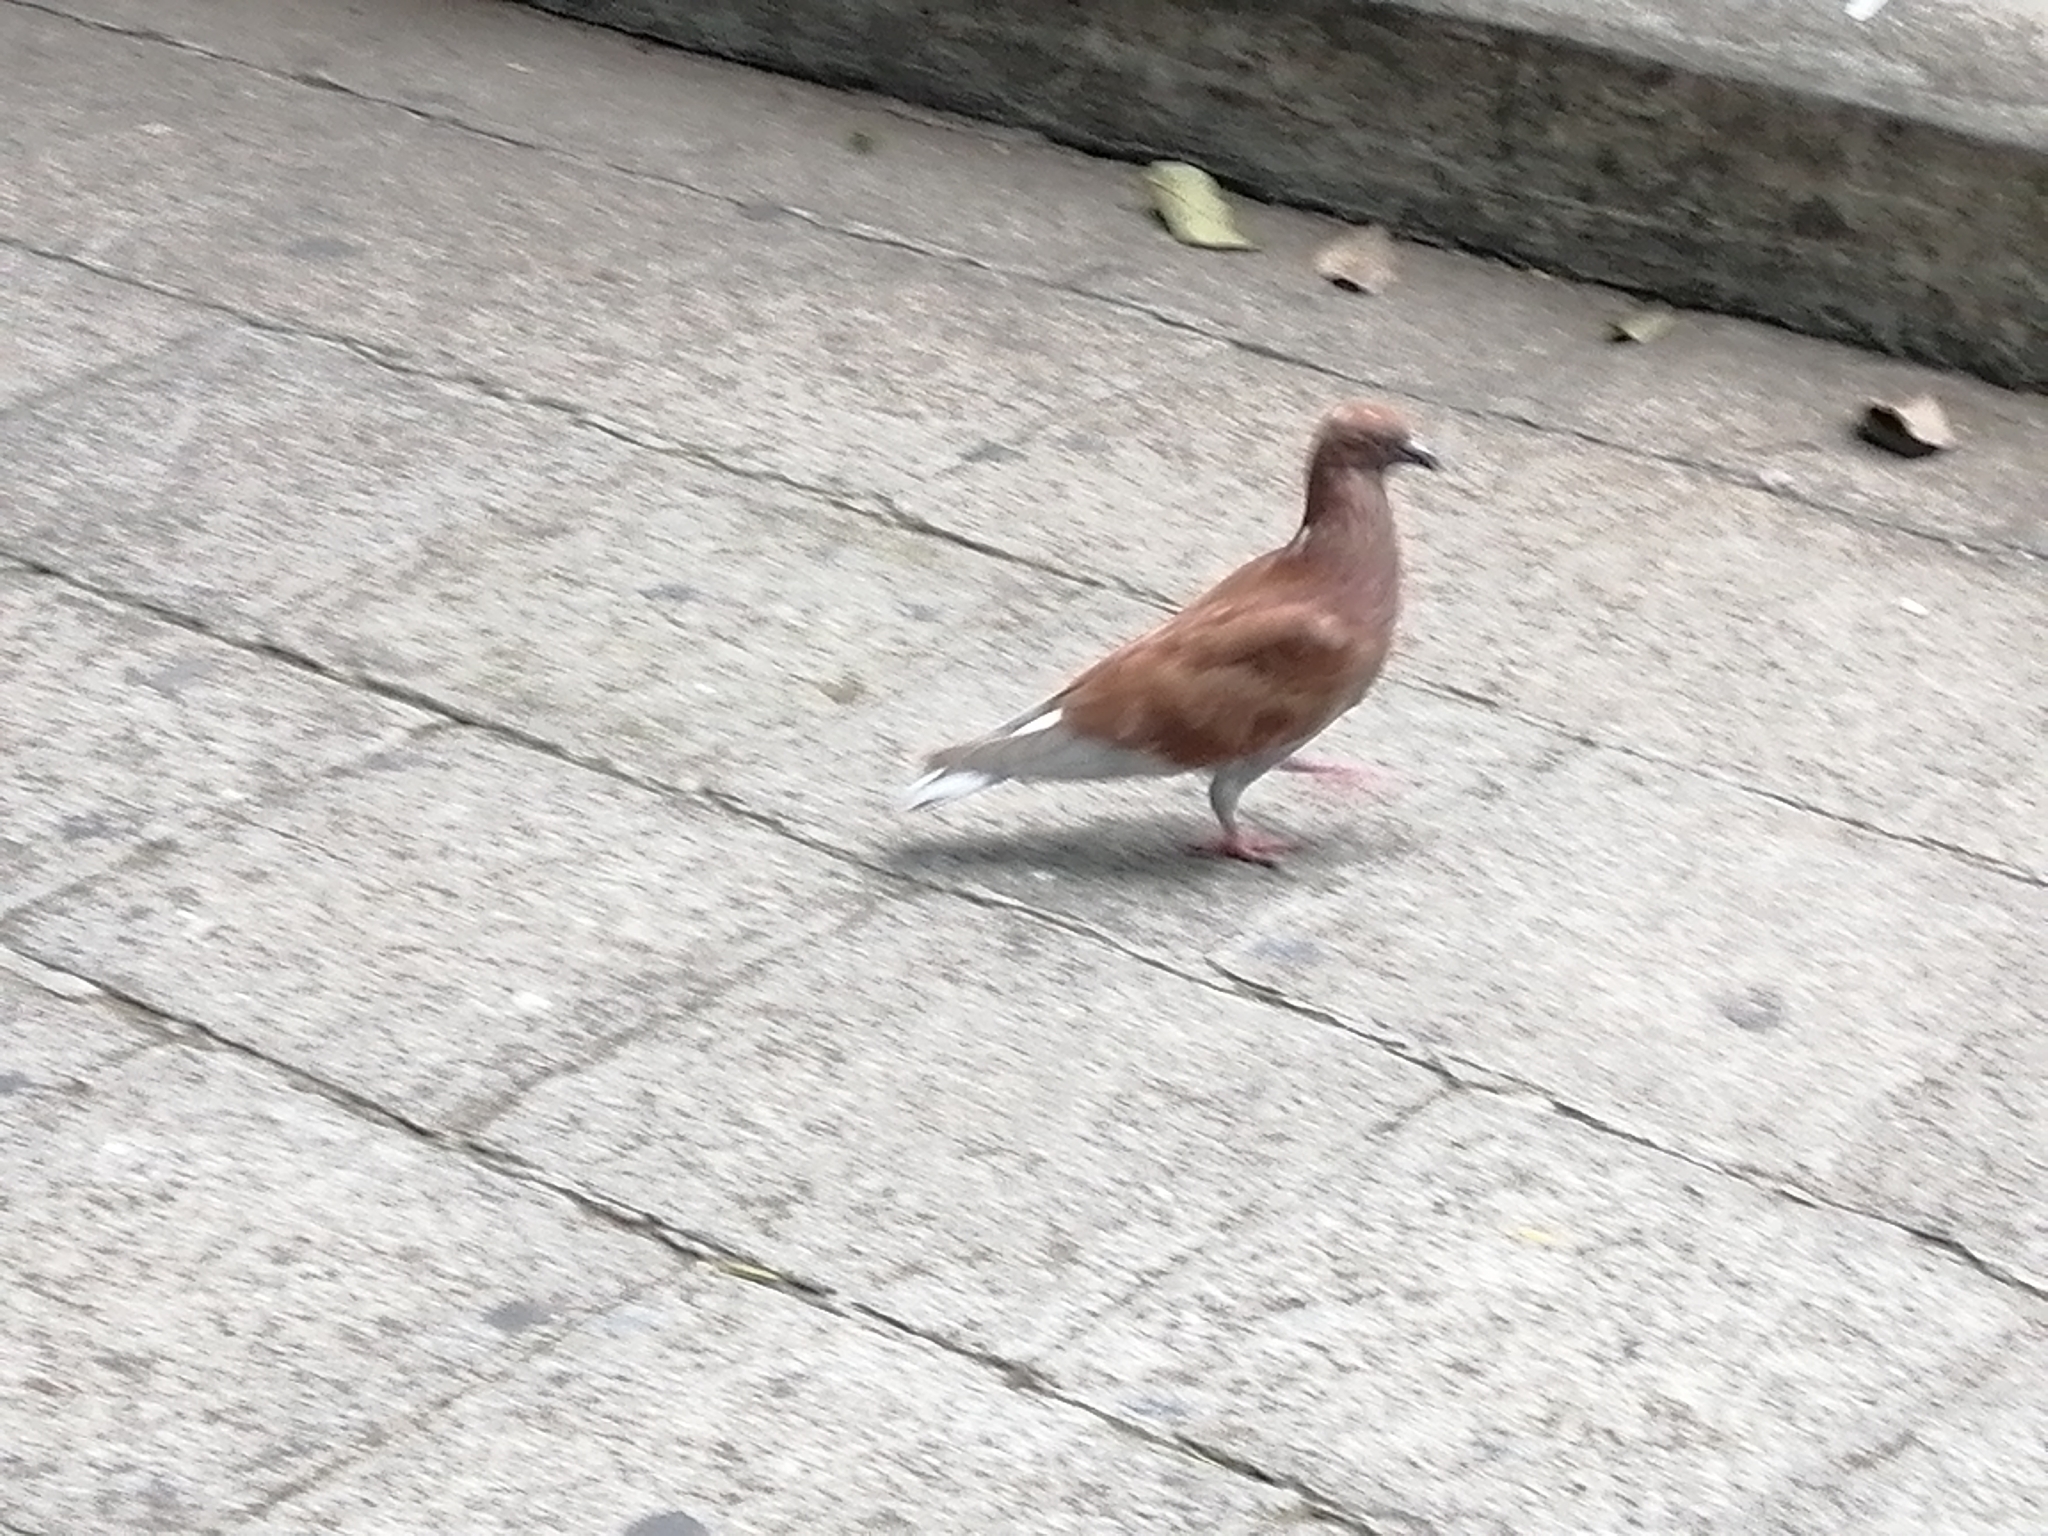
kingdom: Animalia
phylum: Chordata
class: Aves
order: Columbiformes
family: Columbidae
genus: Columba
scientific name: Columba livia
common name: Rock pigeon
